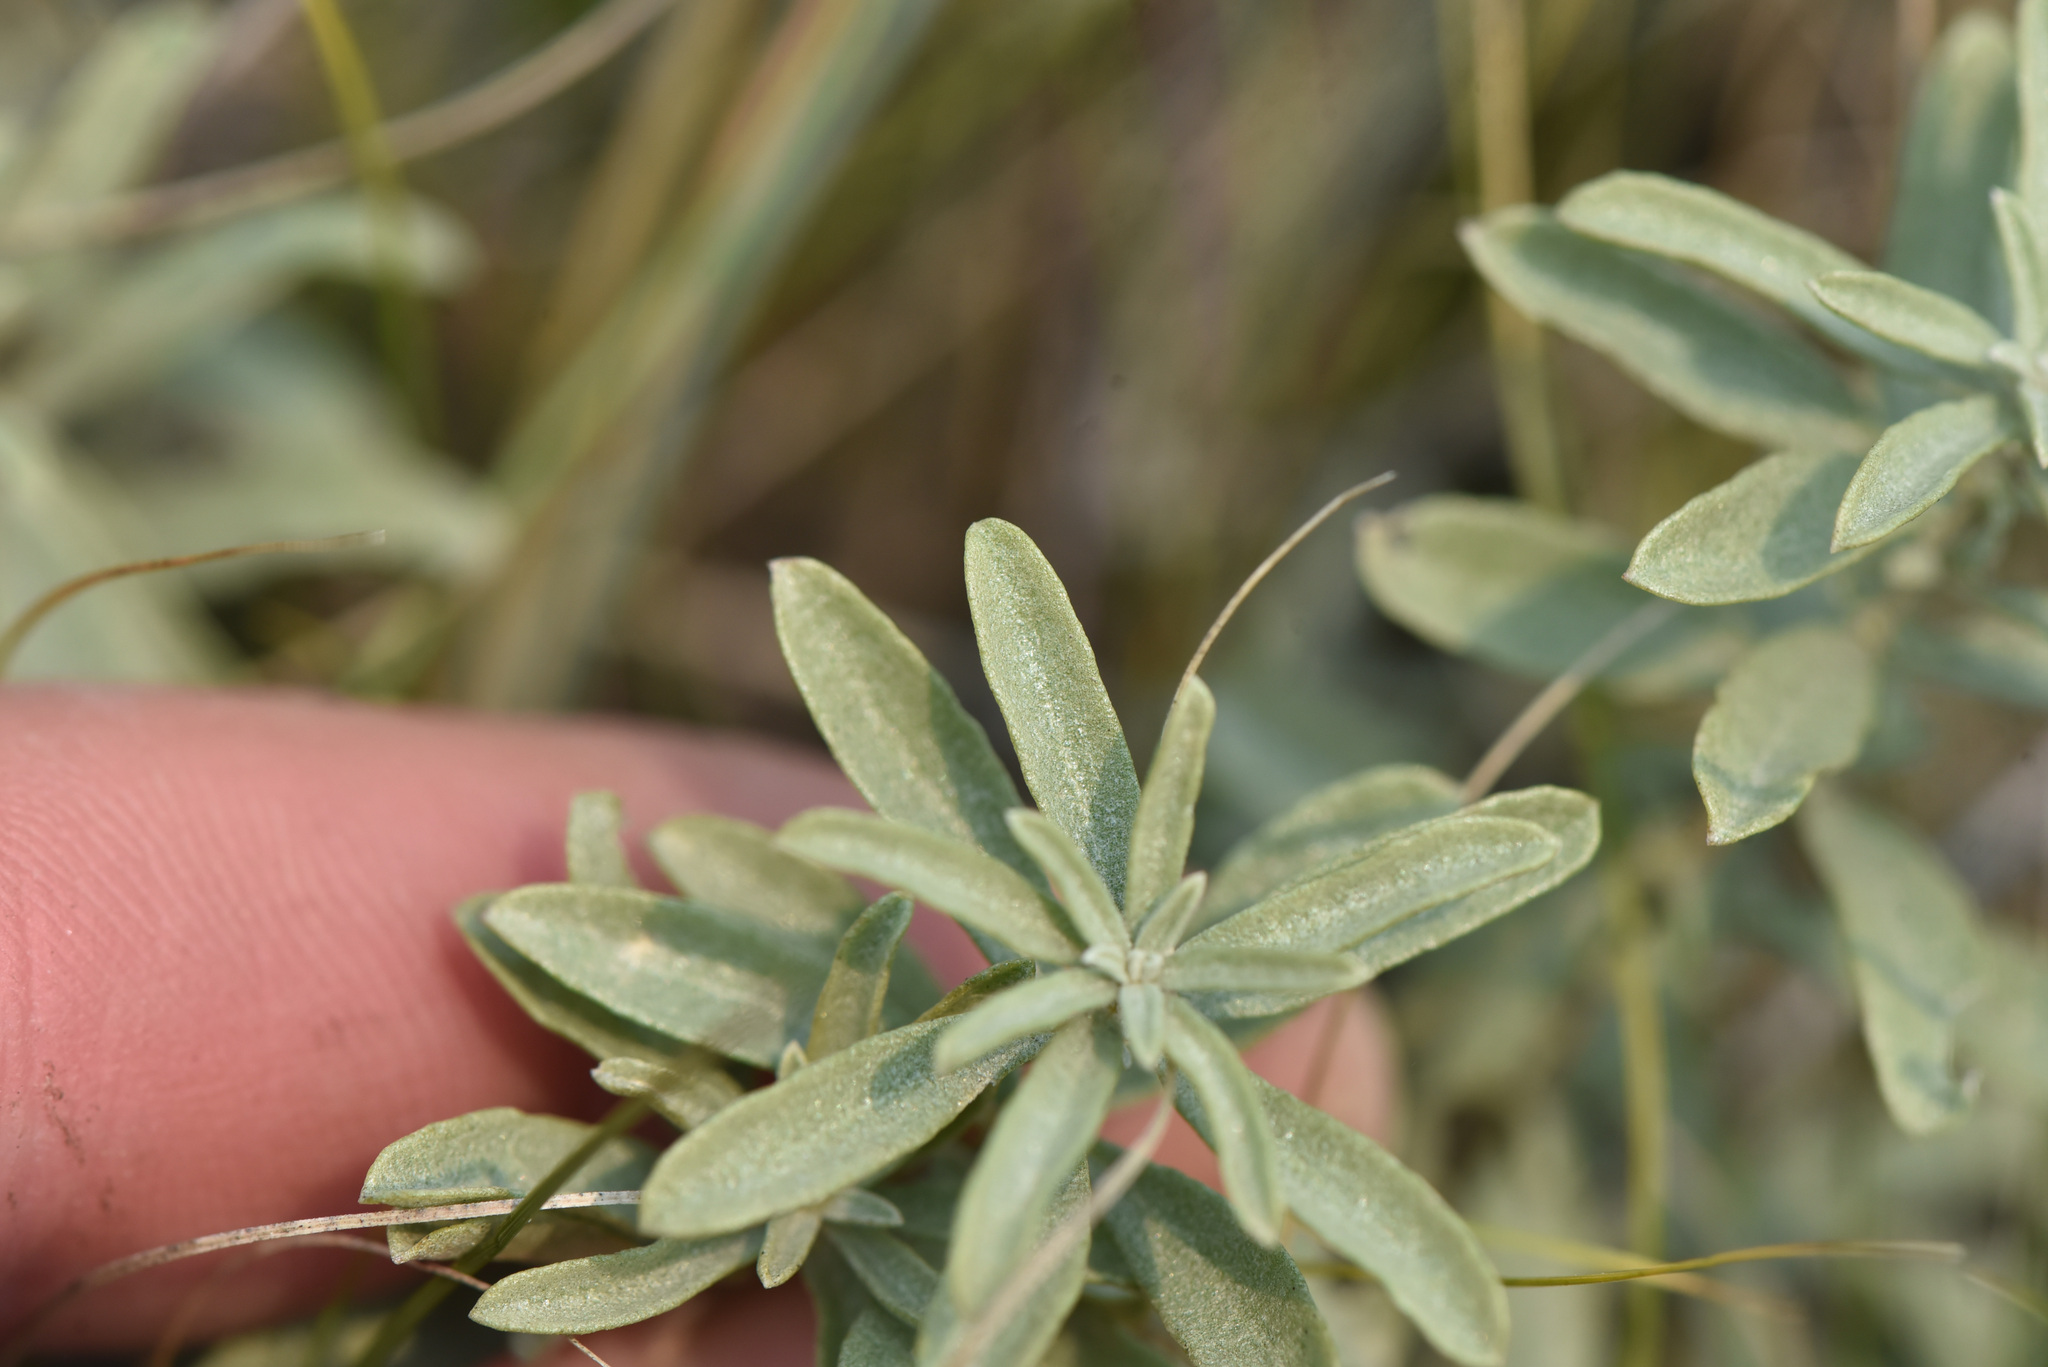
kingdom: Plantae
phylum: Tracheophyta
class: Magnoliopsida
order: Caryophyllales
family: Amaranthaceae
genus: Atriplex
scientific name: Atriplex gardneri
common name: Gardner's orache
